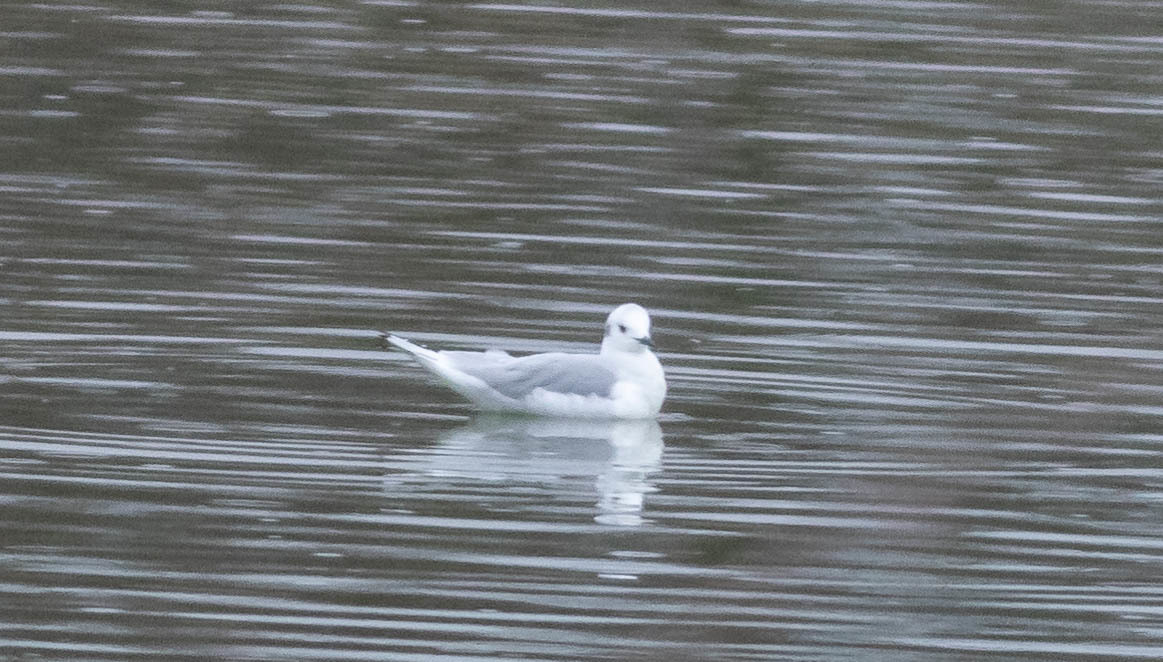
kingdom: Animalia
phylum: Chordata
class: Aves
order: Charadriiformes
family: Laridae
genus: Chroicocephalus
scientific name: Chroicocephalus philadelphia
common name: Bonaparte's gull
